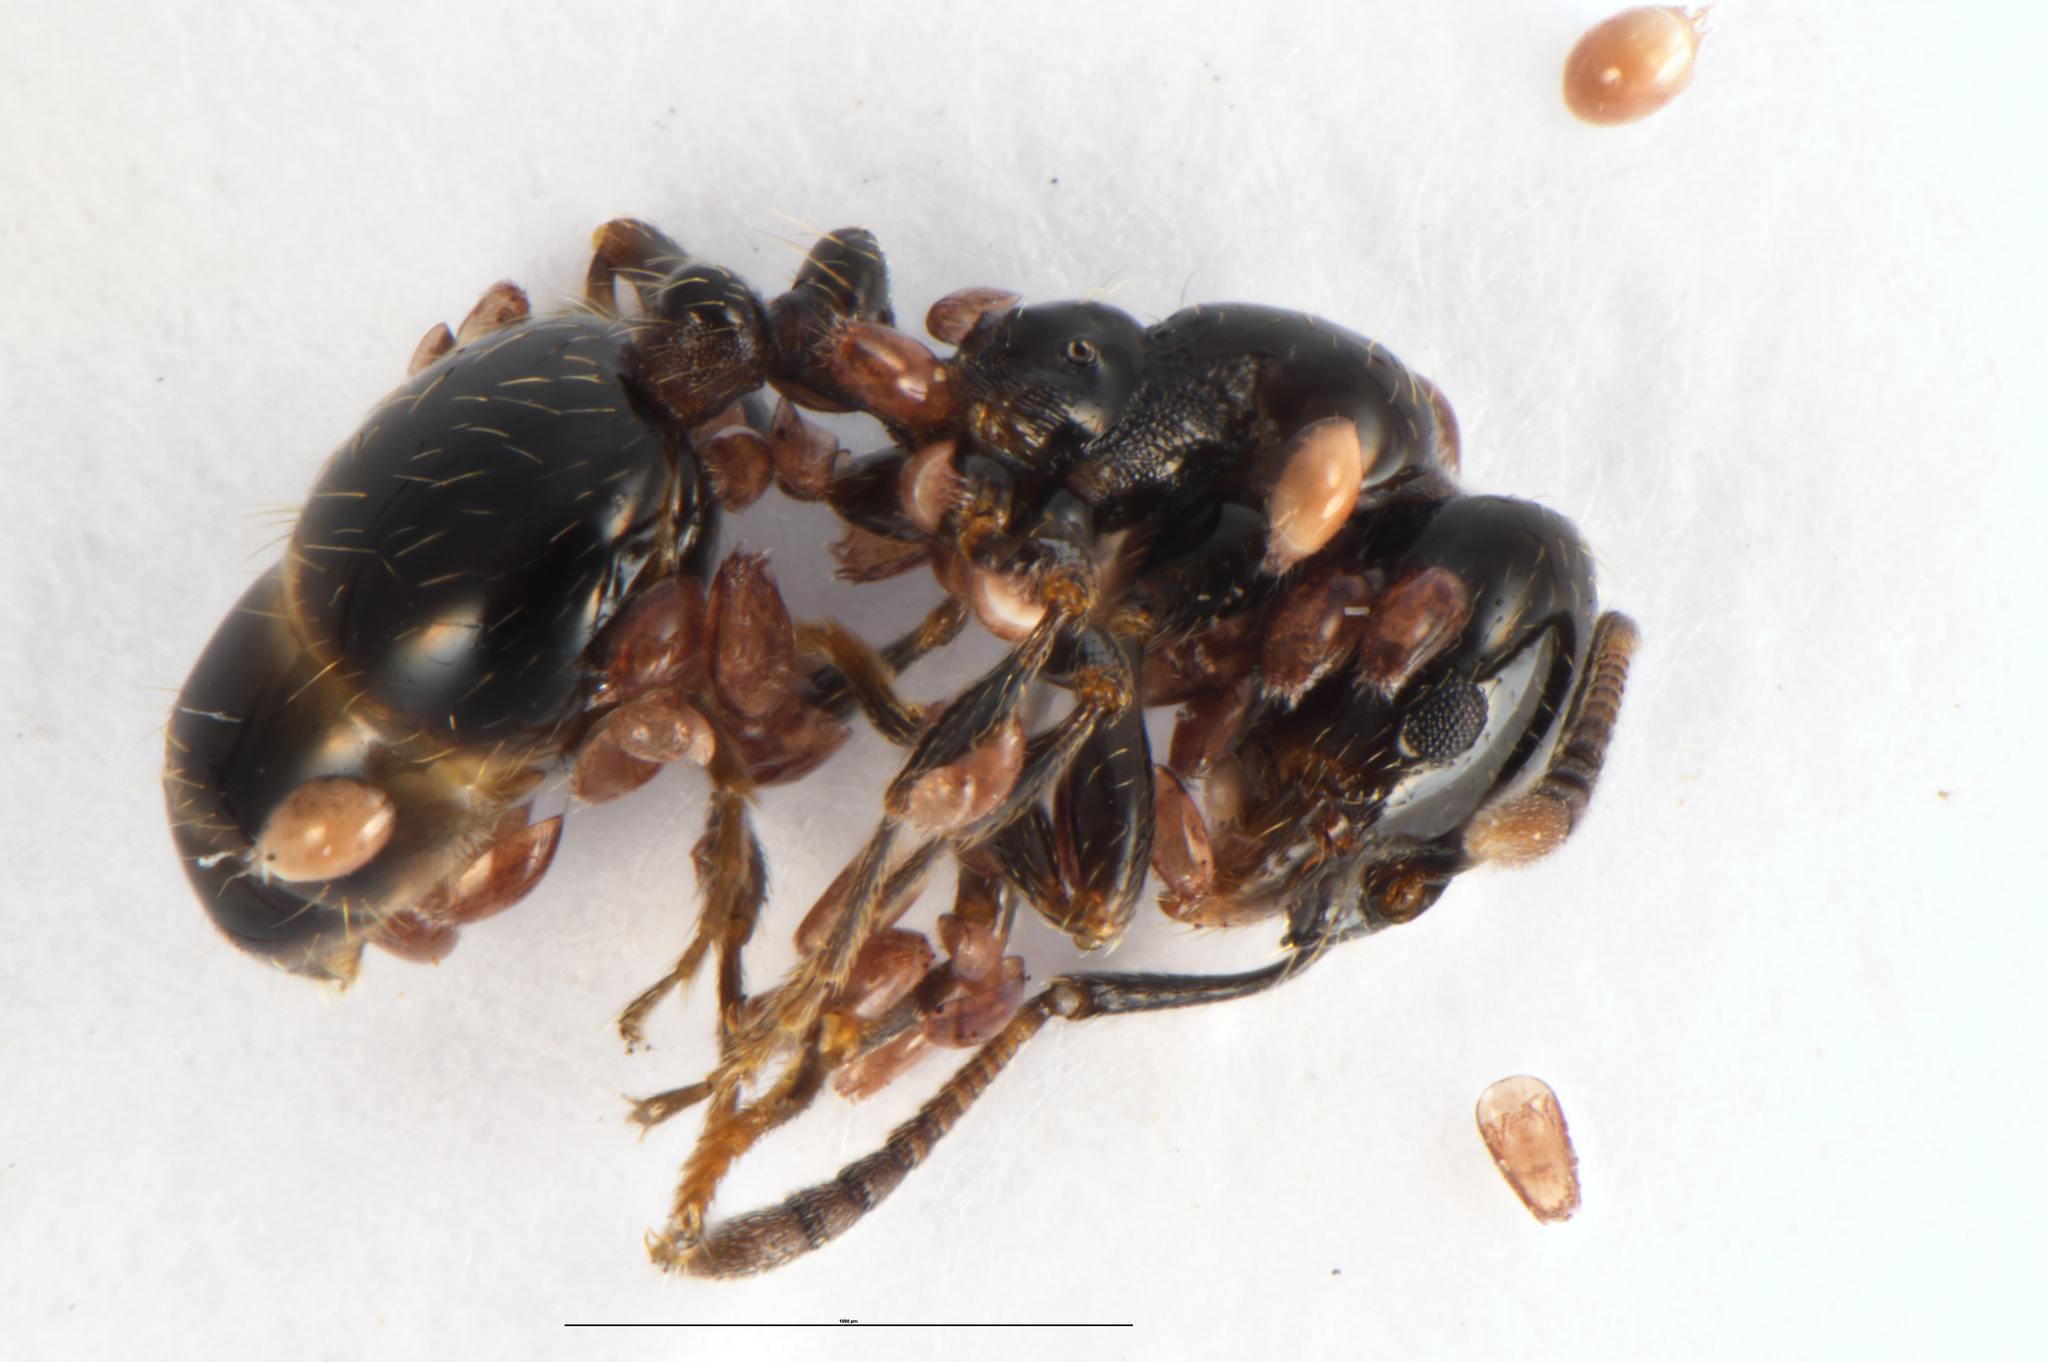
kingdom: Animalia
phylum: Arthropoda
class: Insecta
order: Hymenoptera
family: Formicidae
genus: Monomorium
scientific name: Monomorium antarcticum
